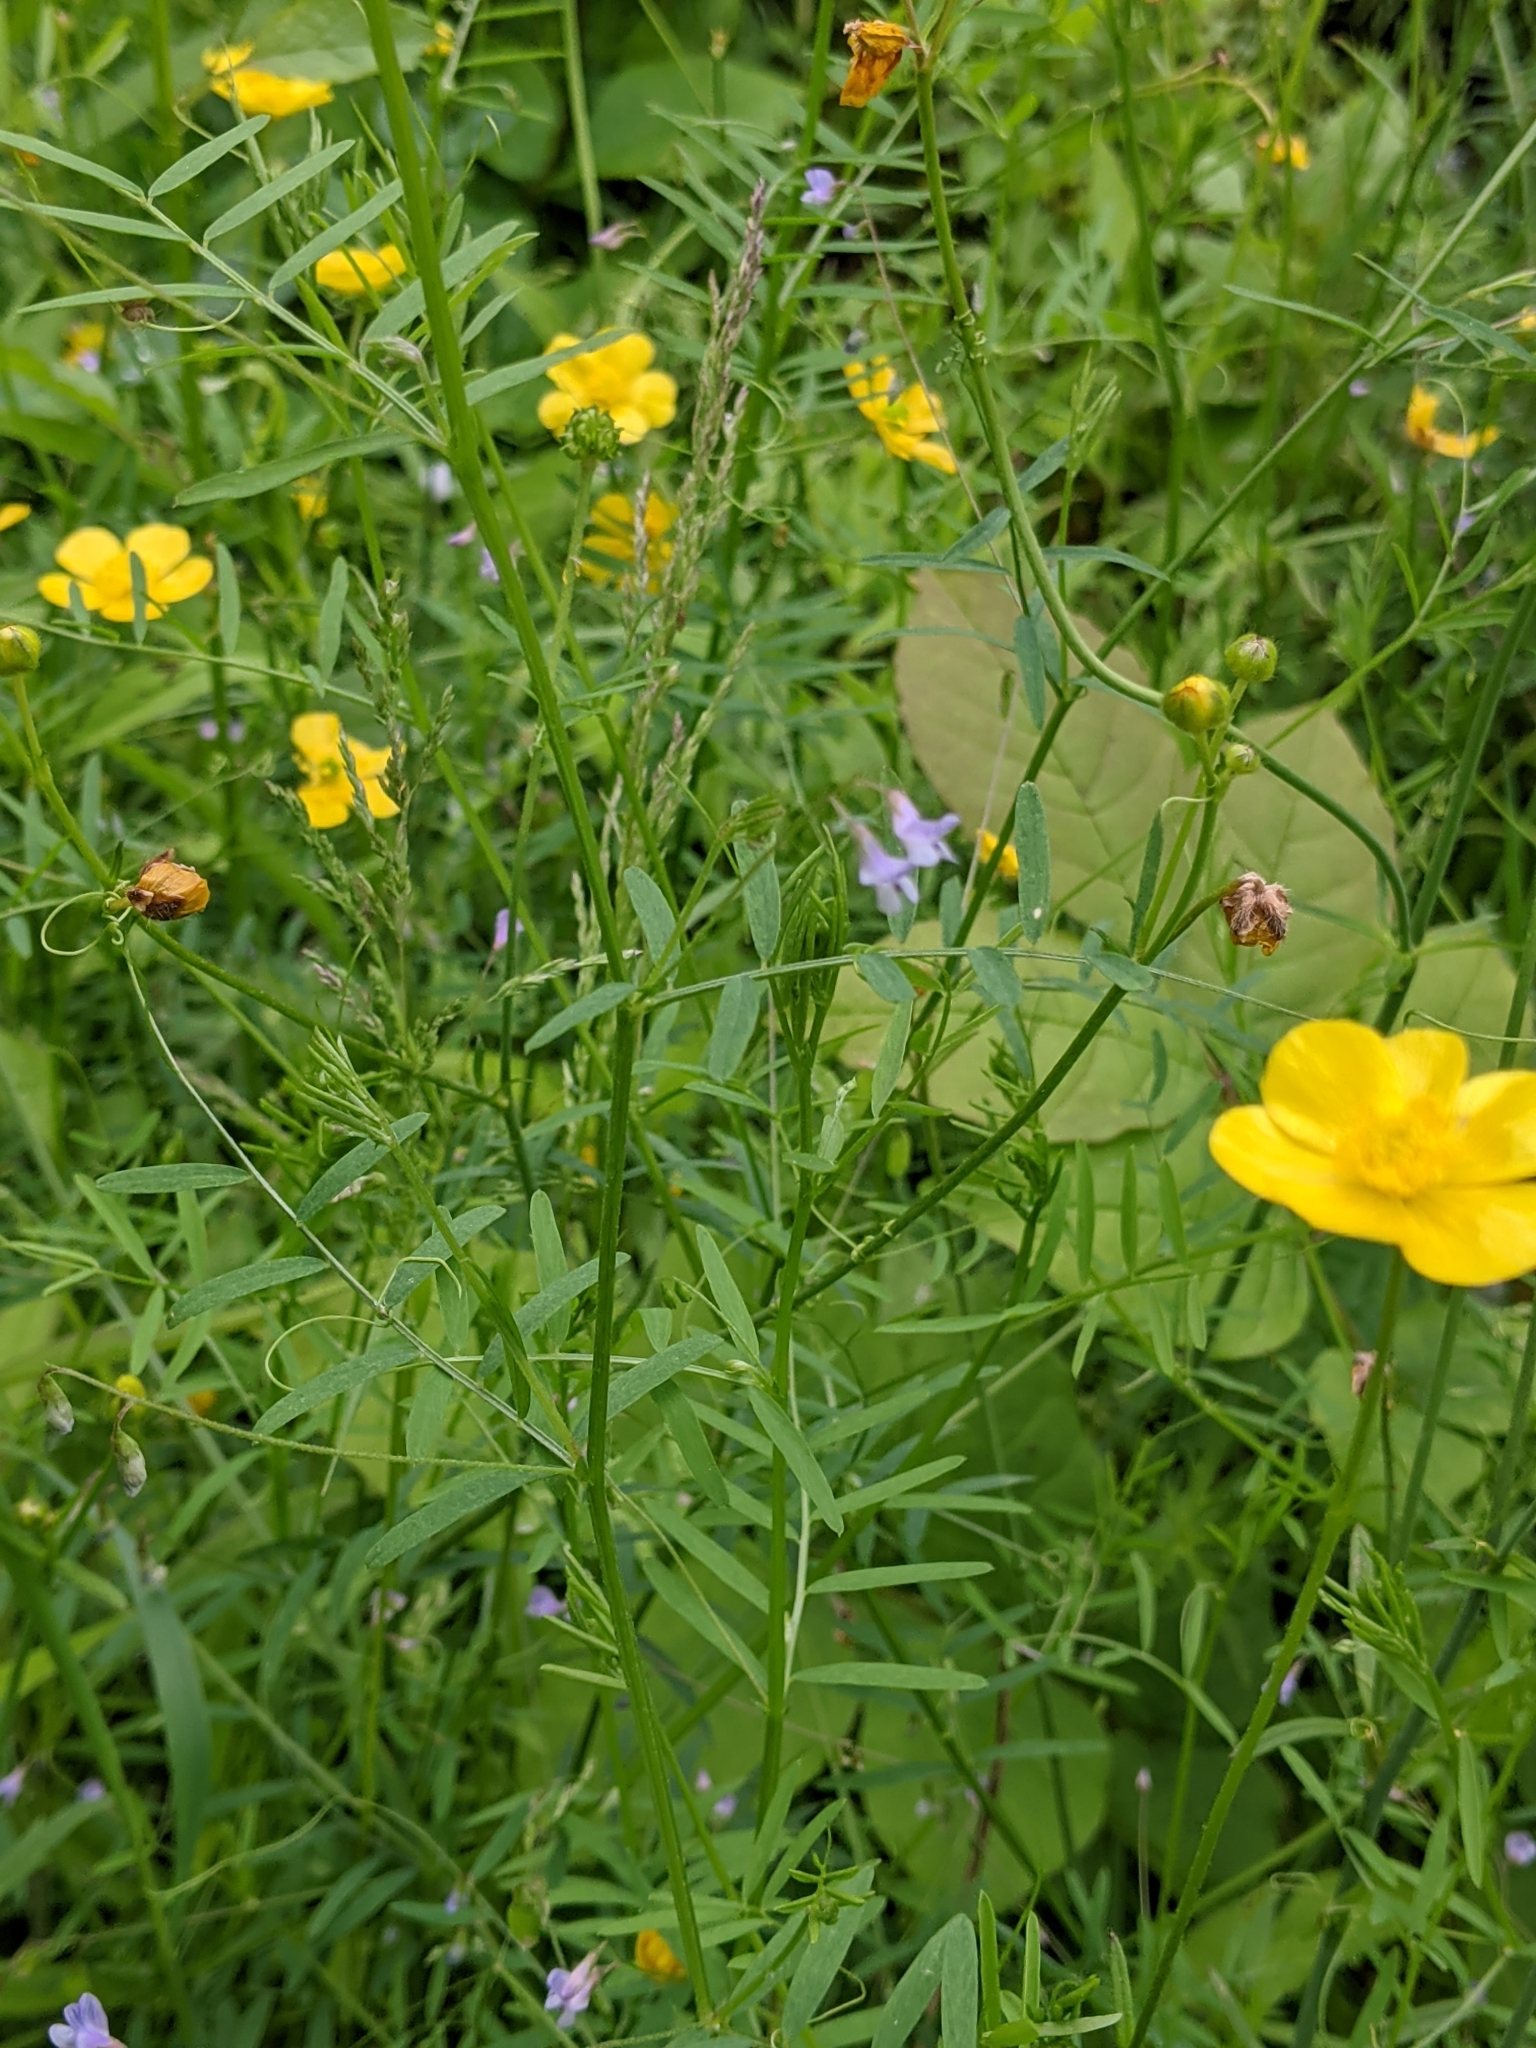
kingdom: Plantae
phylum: Tracheophyta
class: Magnoliopsida
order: Fabales
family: Fabaceae
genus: Vicia
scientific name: Vicia tetrasperma
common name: Smooth tare
